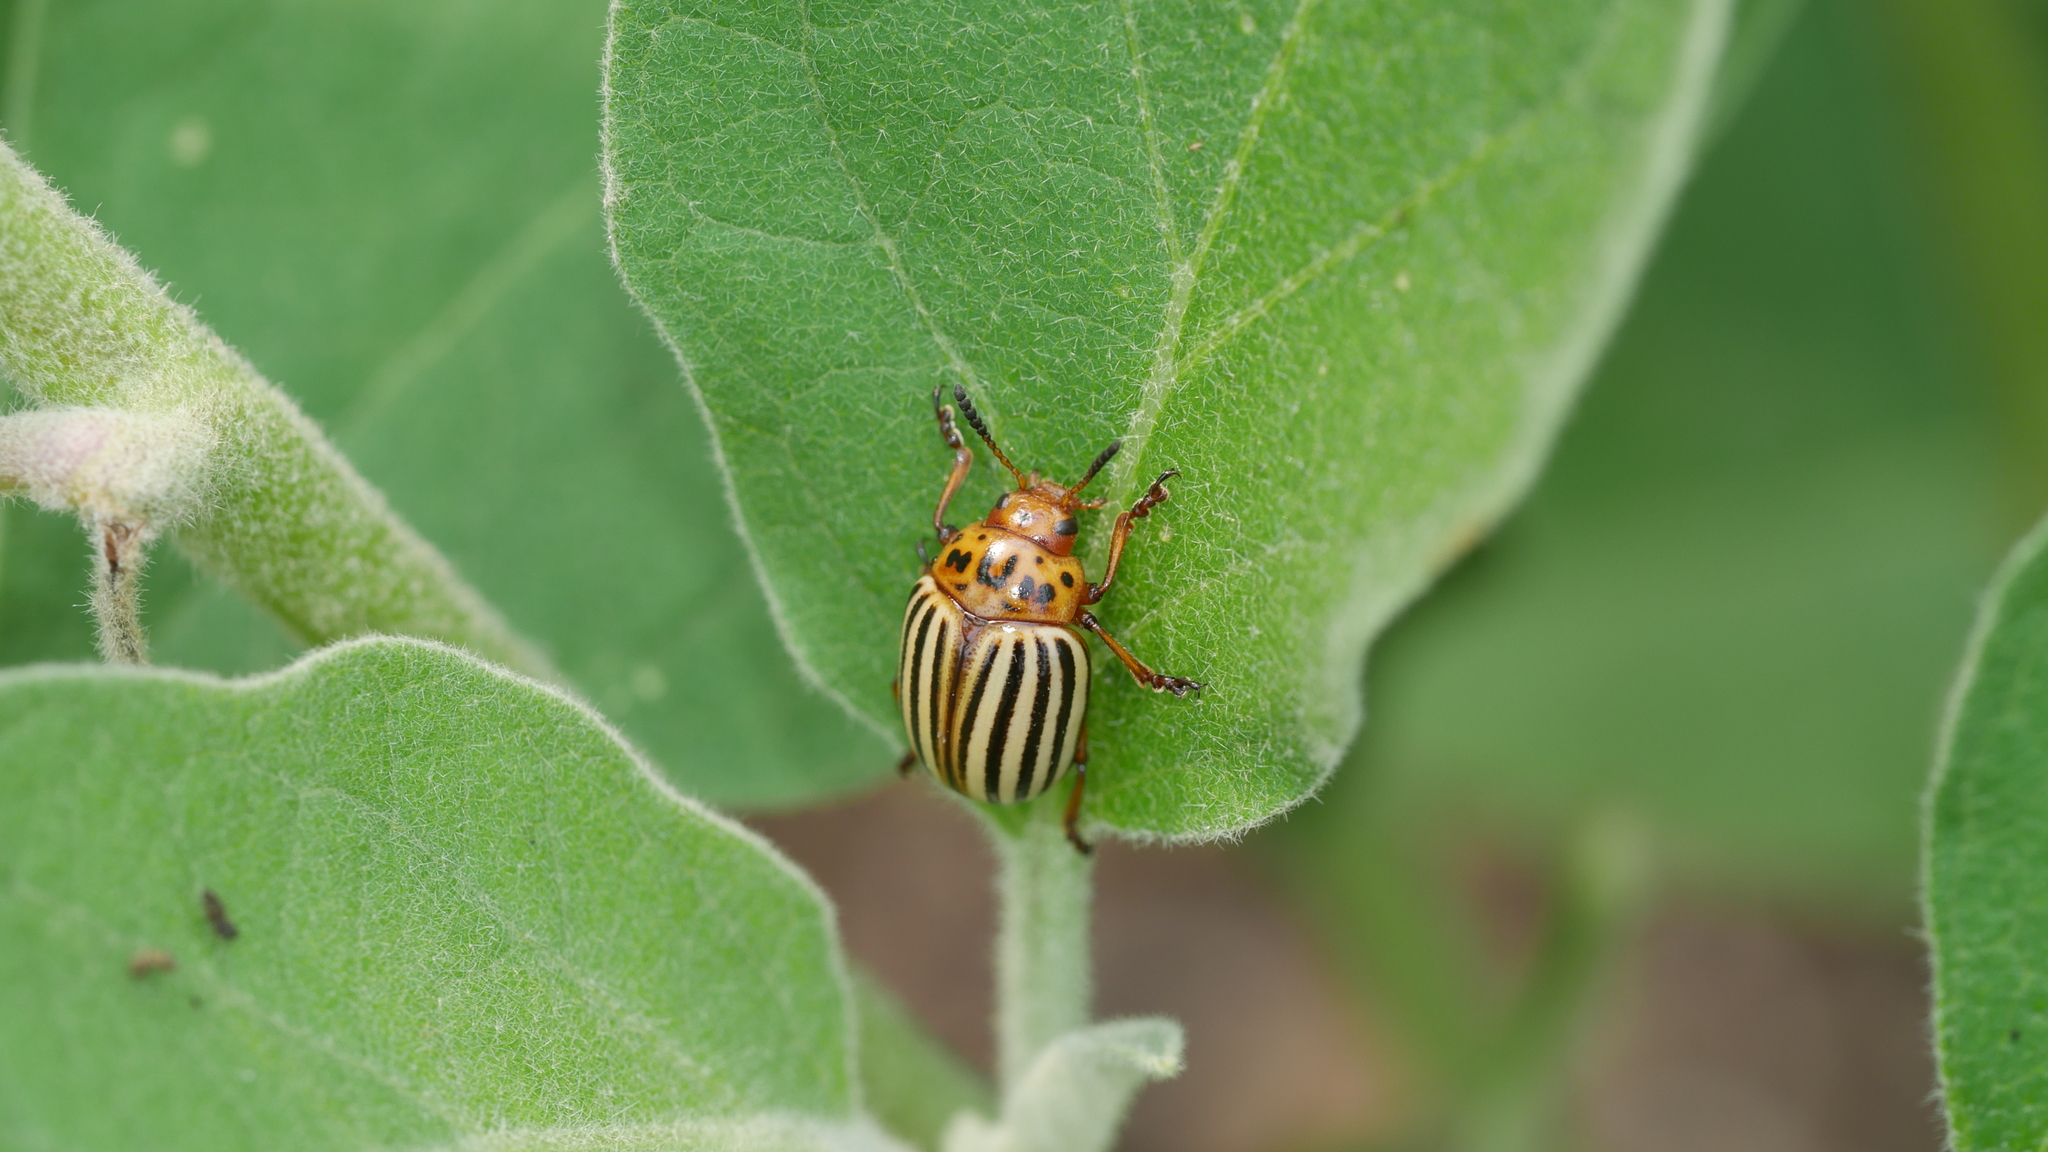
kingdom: Animalia
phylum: Arthropoda
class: Insecta
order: Coleoptera
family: Chrysomelidae
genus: Leptinotarsa
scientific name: Leptinotarsa decemlineata
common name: Colorado potato beetle
